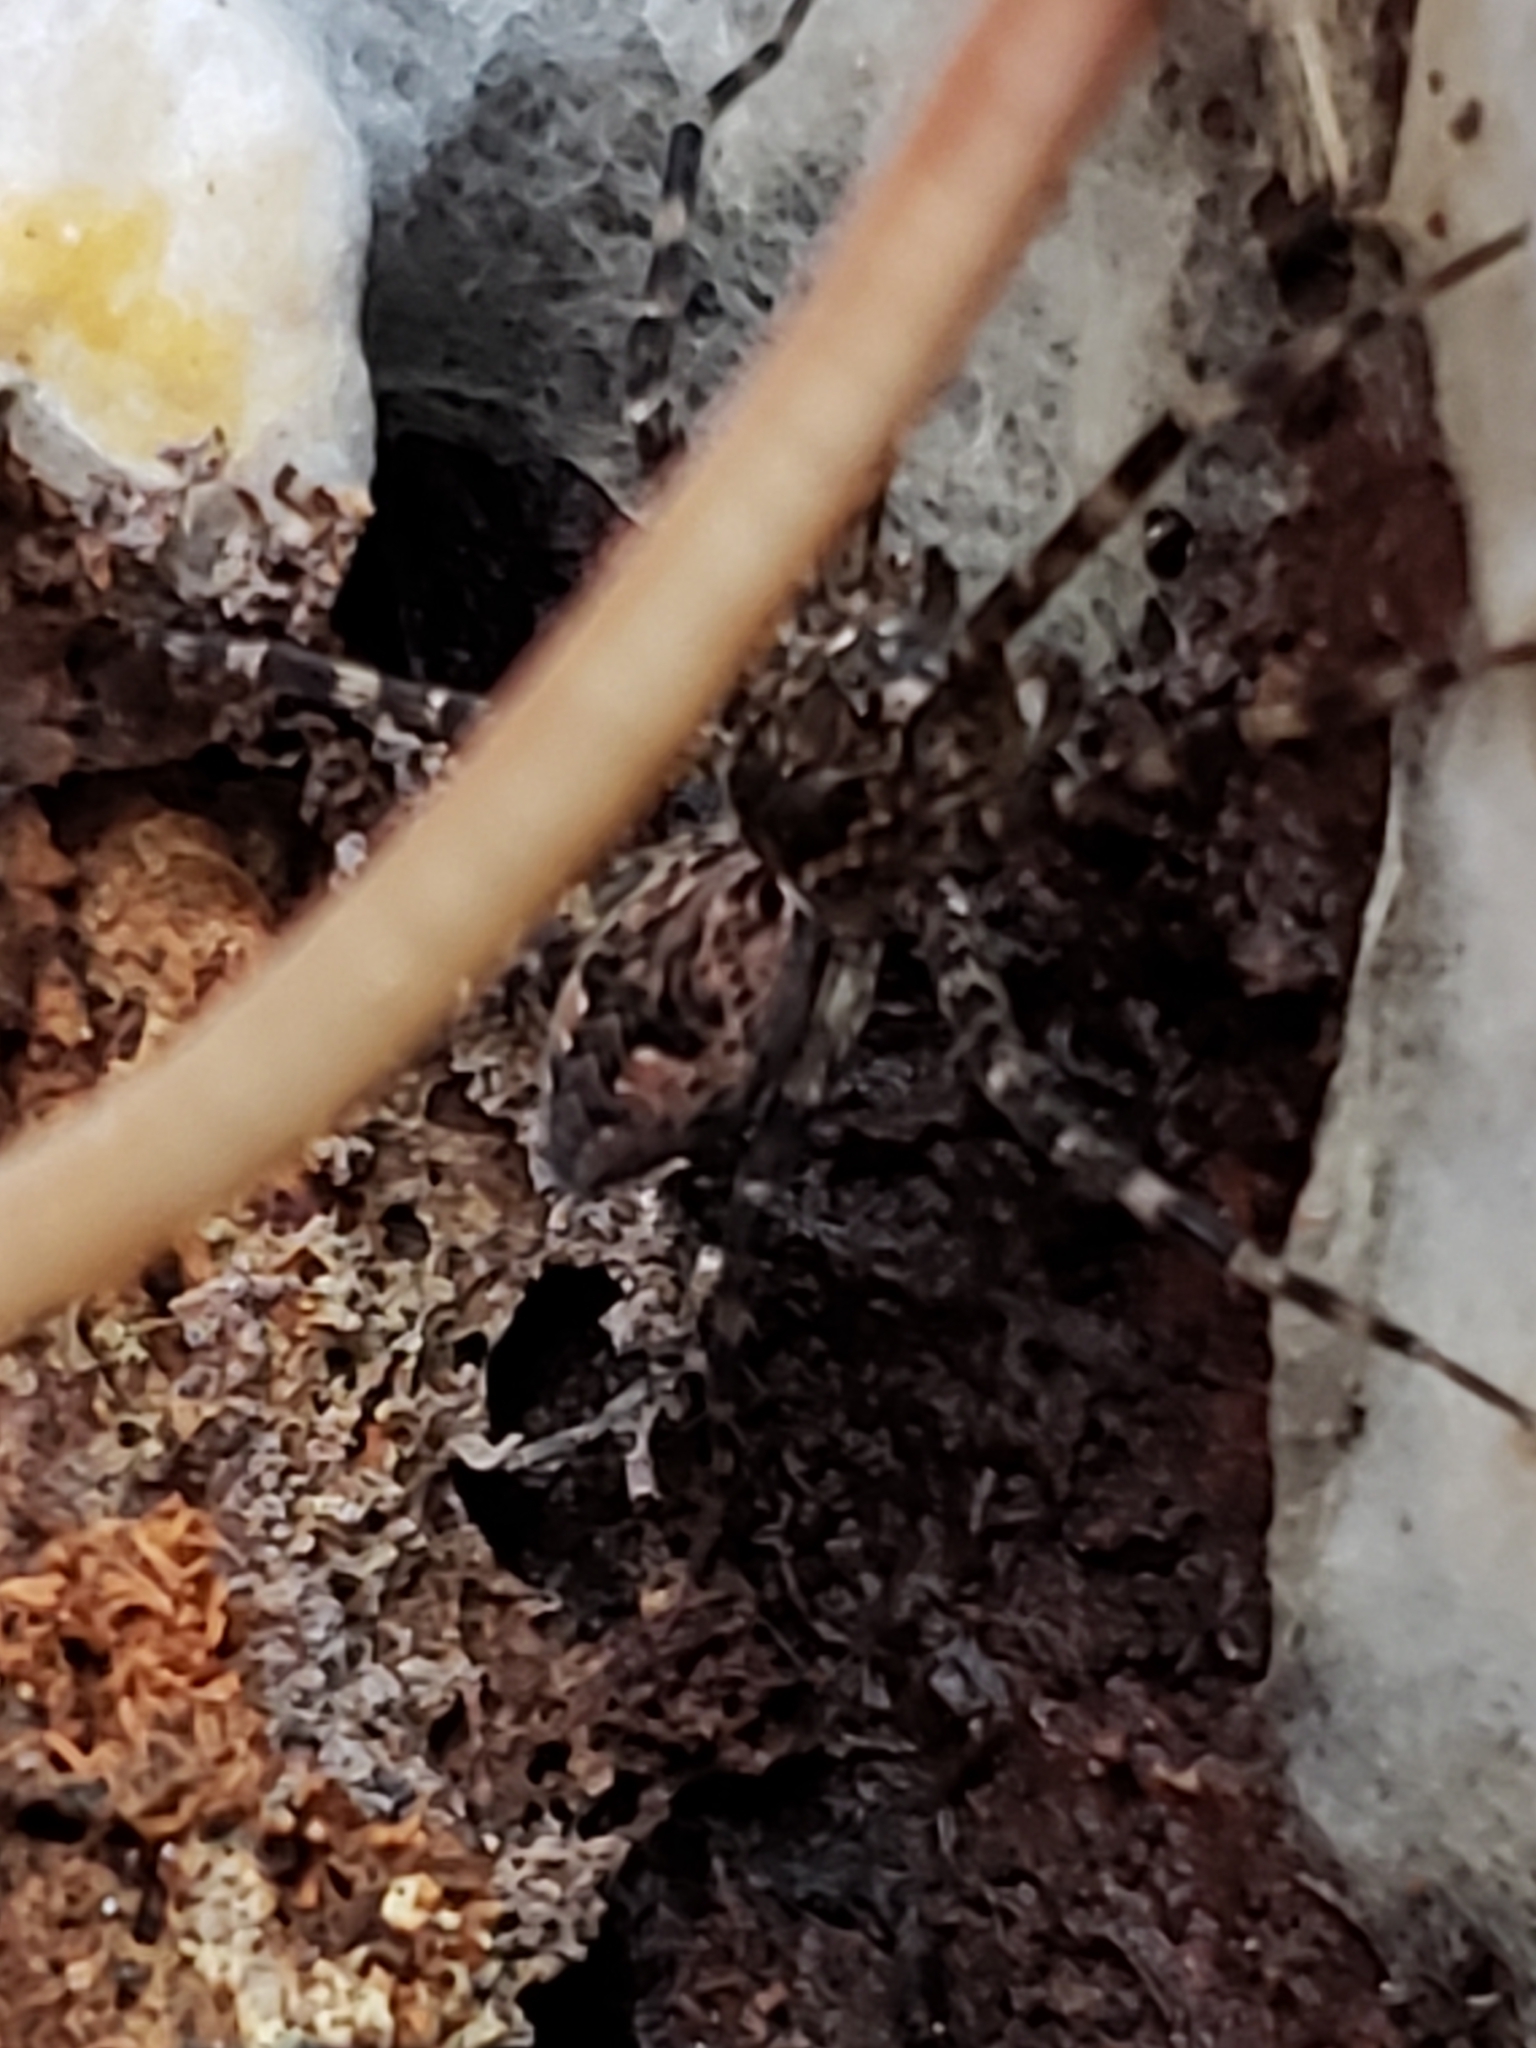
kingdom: Animalia
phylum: Arthropoda
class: Arachnida
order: Araneae
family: Pisauridae
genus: Dolomedes
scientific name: Dolomedes tenebrosus
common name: Dark fishing spider
